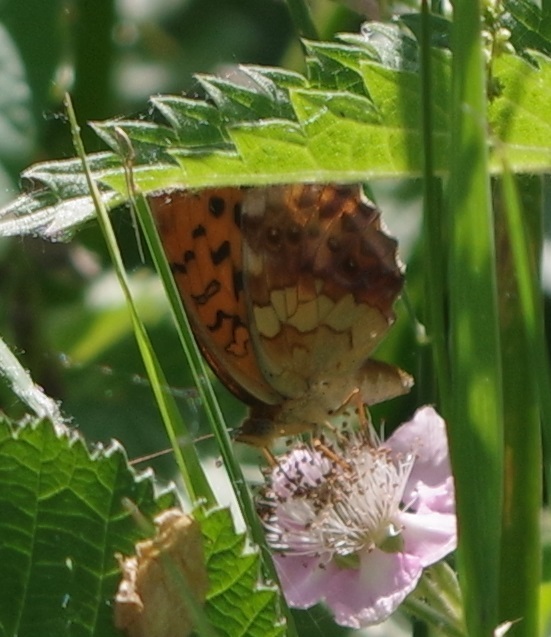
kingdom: Animalia
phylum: Arthropoda
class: Insecta
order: Lepidoptera
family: Nymphalidae
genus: Brenthis
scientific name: Brenthis daphne
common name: Marbled fritillary
